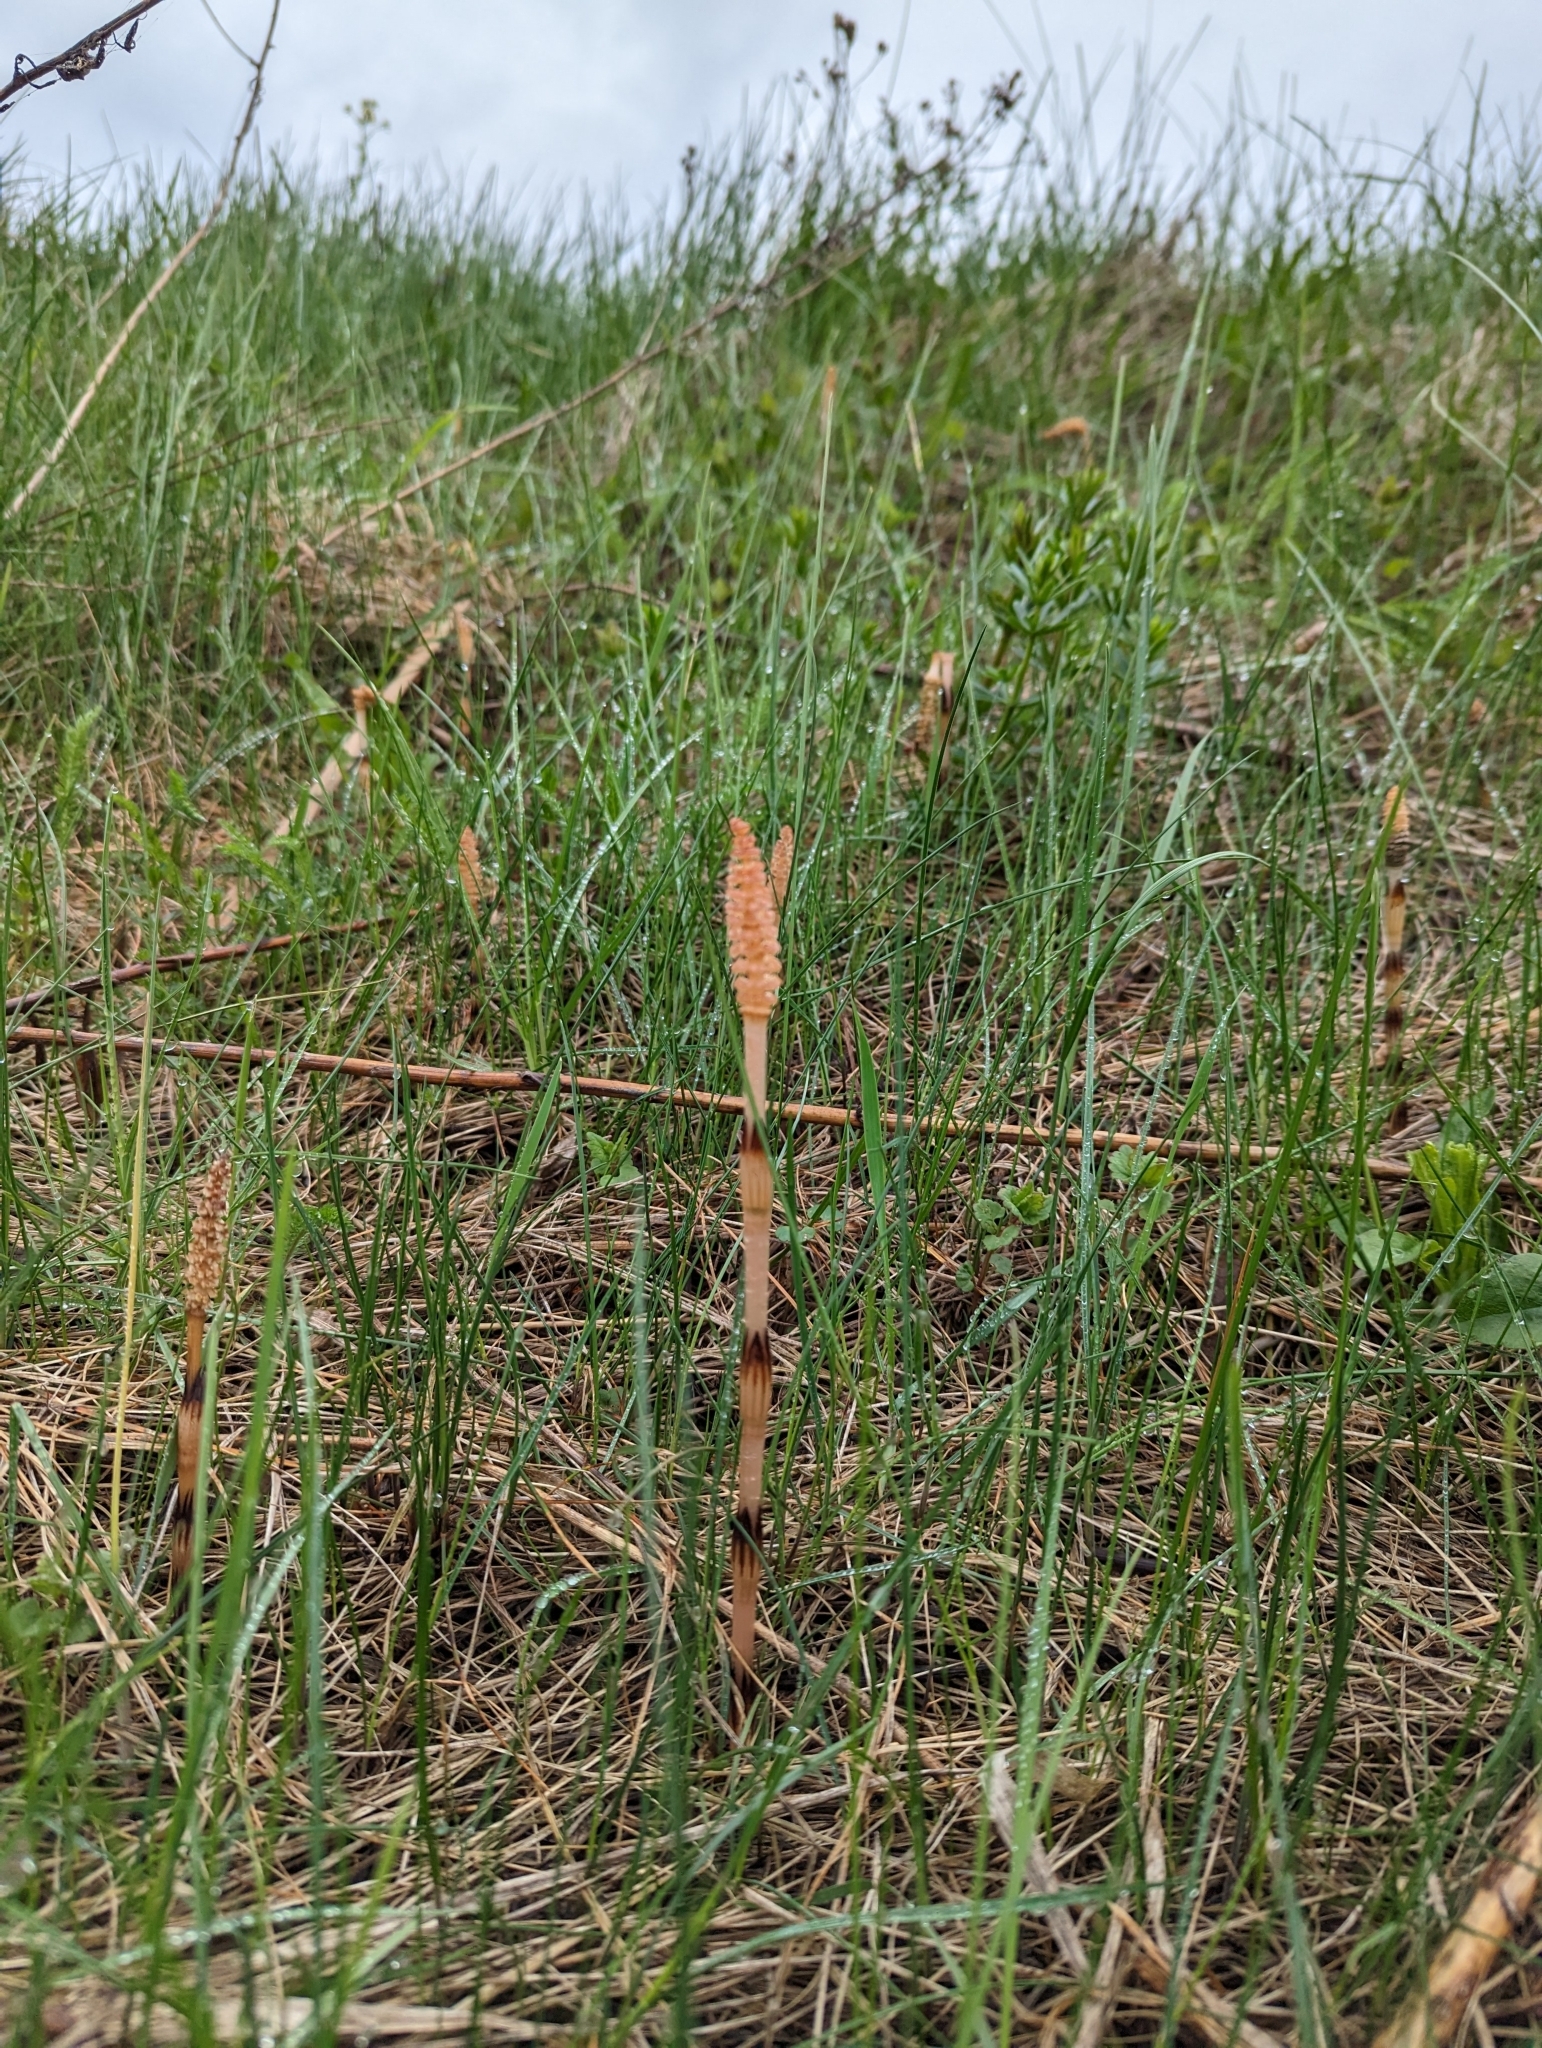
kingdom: Plantae
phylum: Tracheophyta
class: Polypodiopsida
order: Equisetales
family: Equisetaceae
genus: Equisetum
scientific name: Equisetum arvense
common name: Field horsetail
